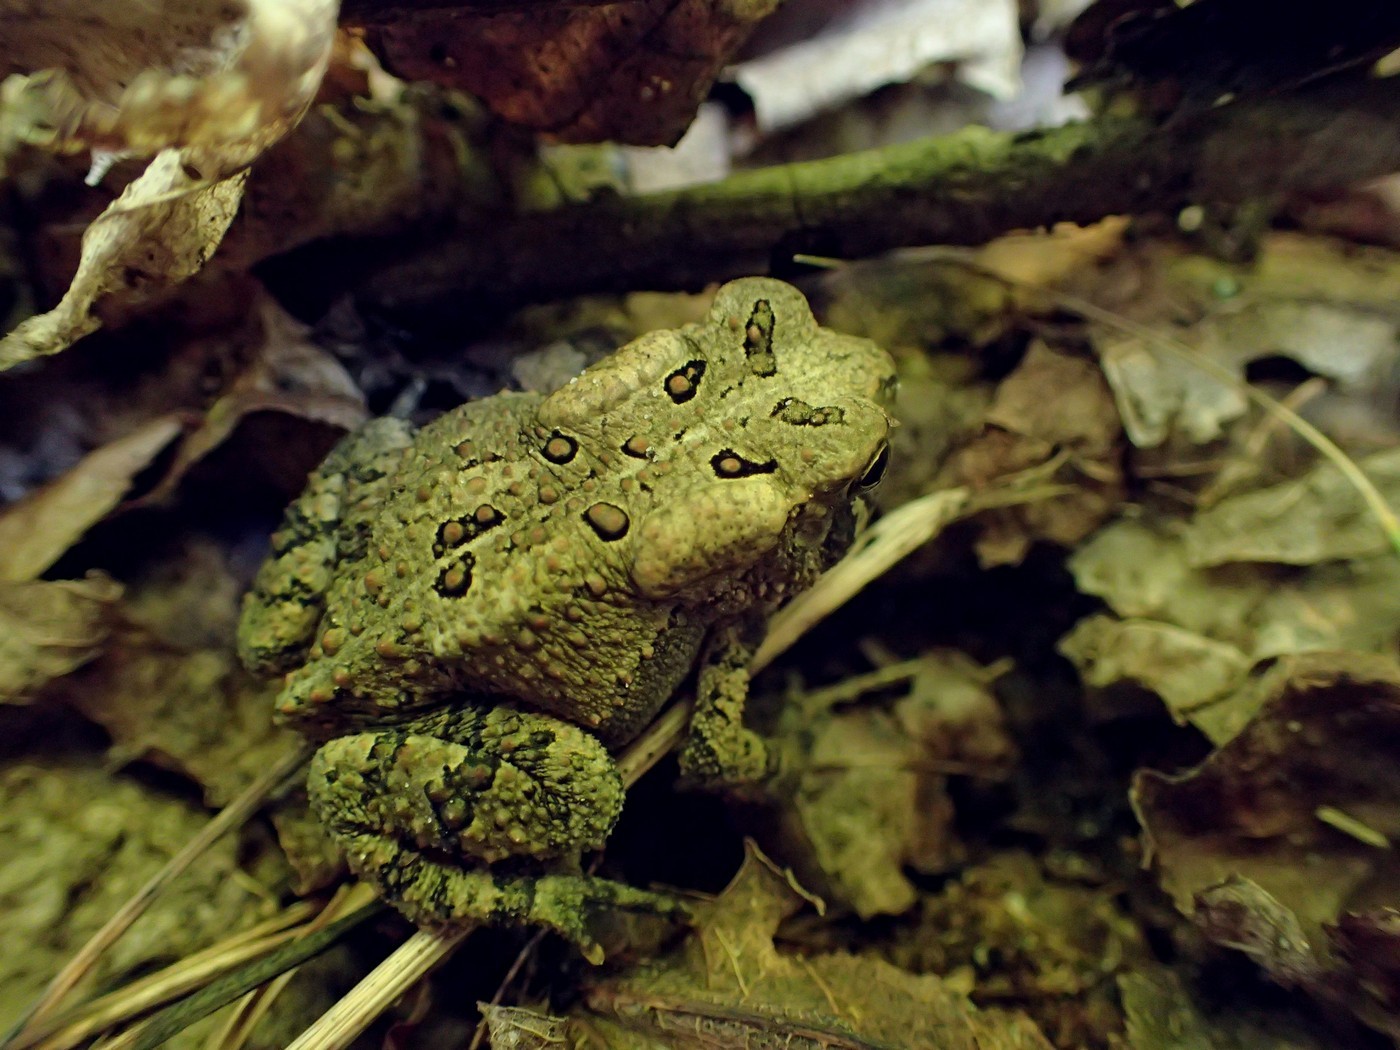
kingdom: Animalia
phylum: Chordata
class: Amphibia
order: Anura
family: Bufonidae
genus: Anaxyrus
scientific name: Anaxyrus americanus
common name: American toad
